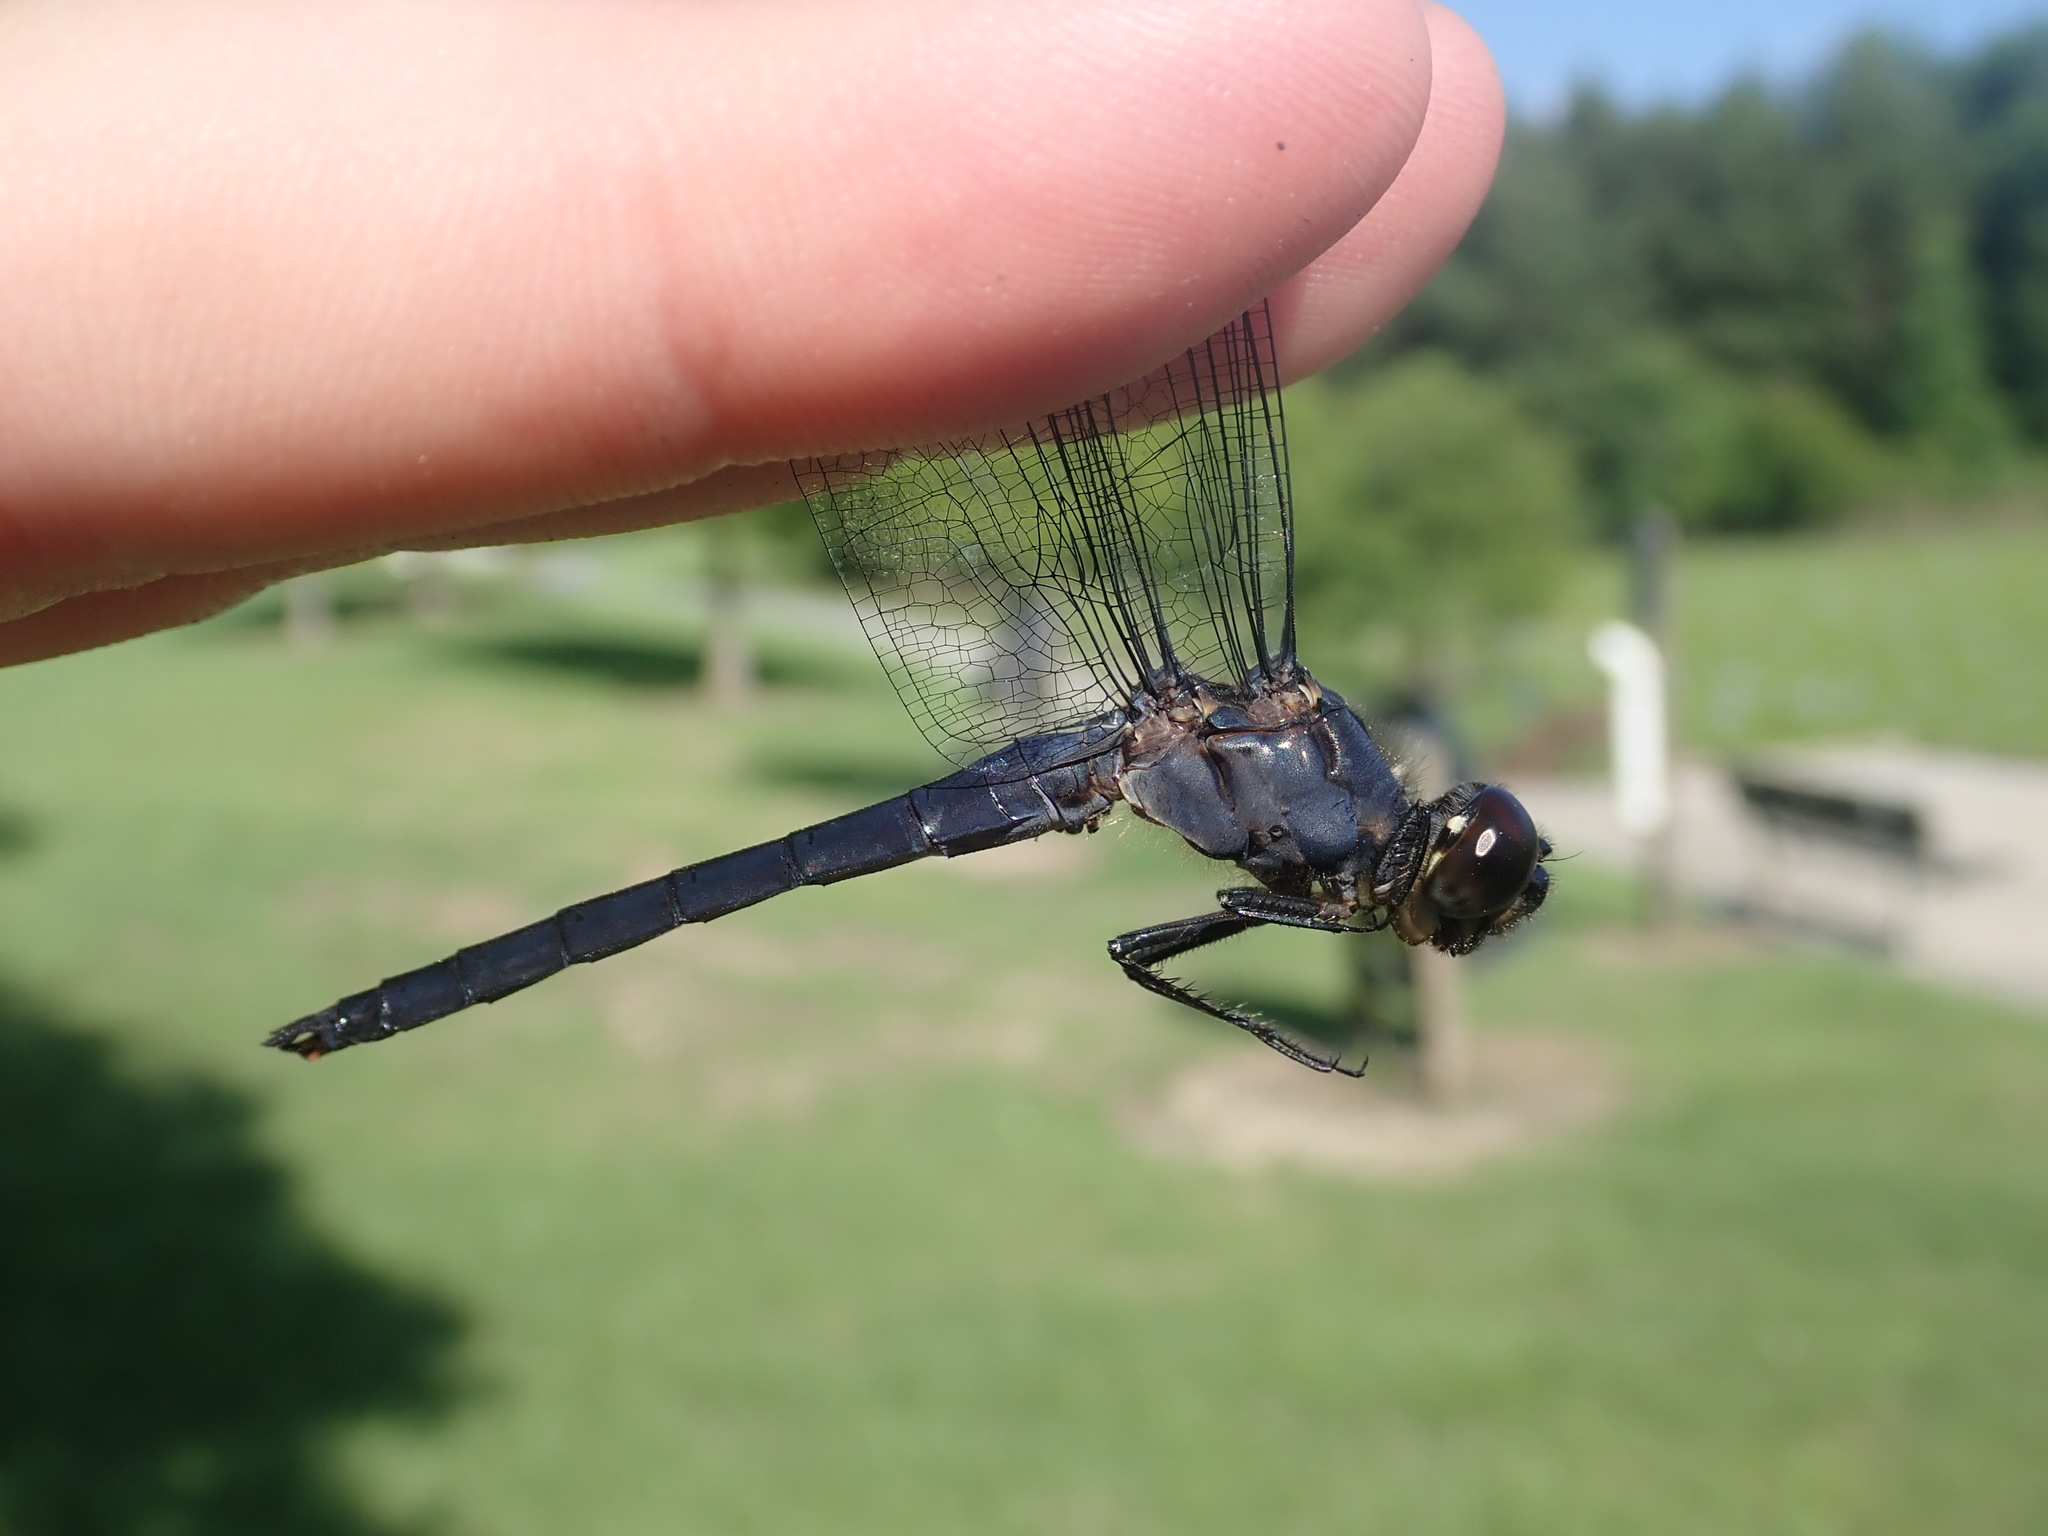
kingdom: Animalia
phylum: Arthropoda
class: Insecta
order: Odonata
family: Libellulidae
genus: Libellula
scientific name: Libellula incesta
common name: Slaty skimmer
